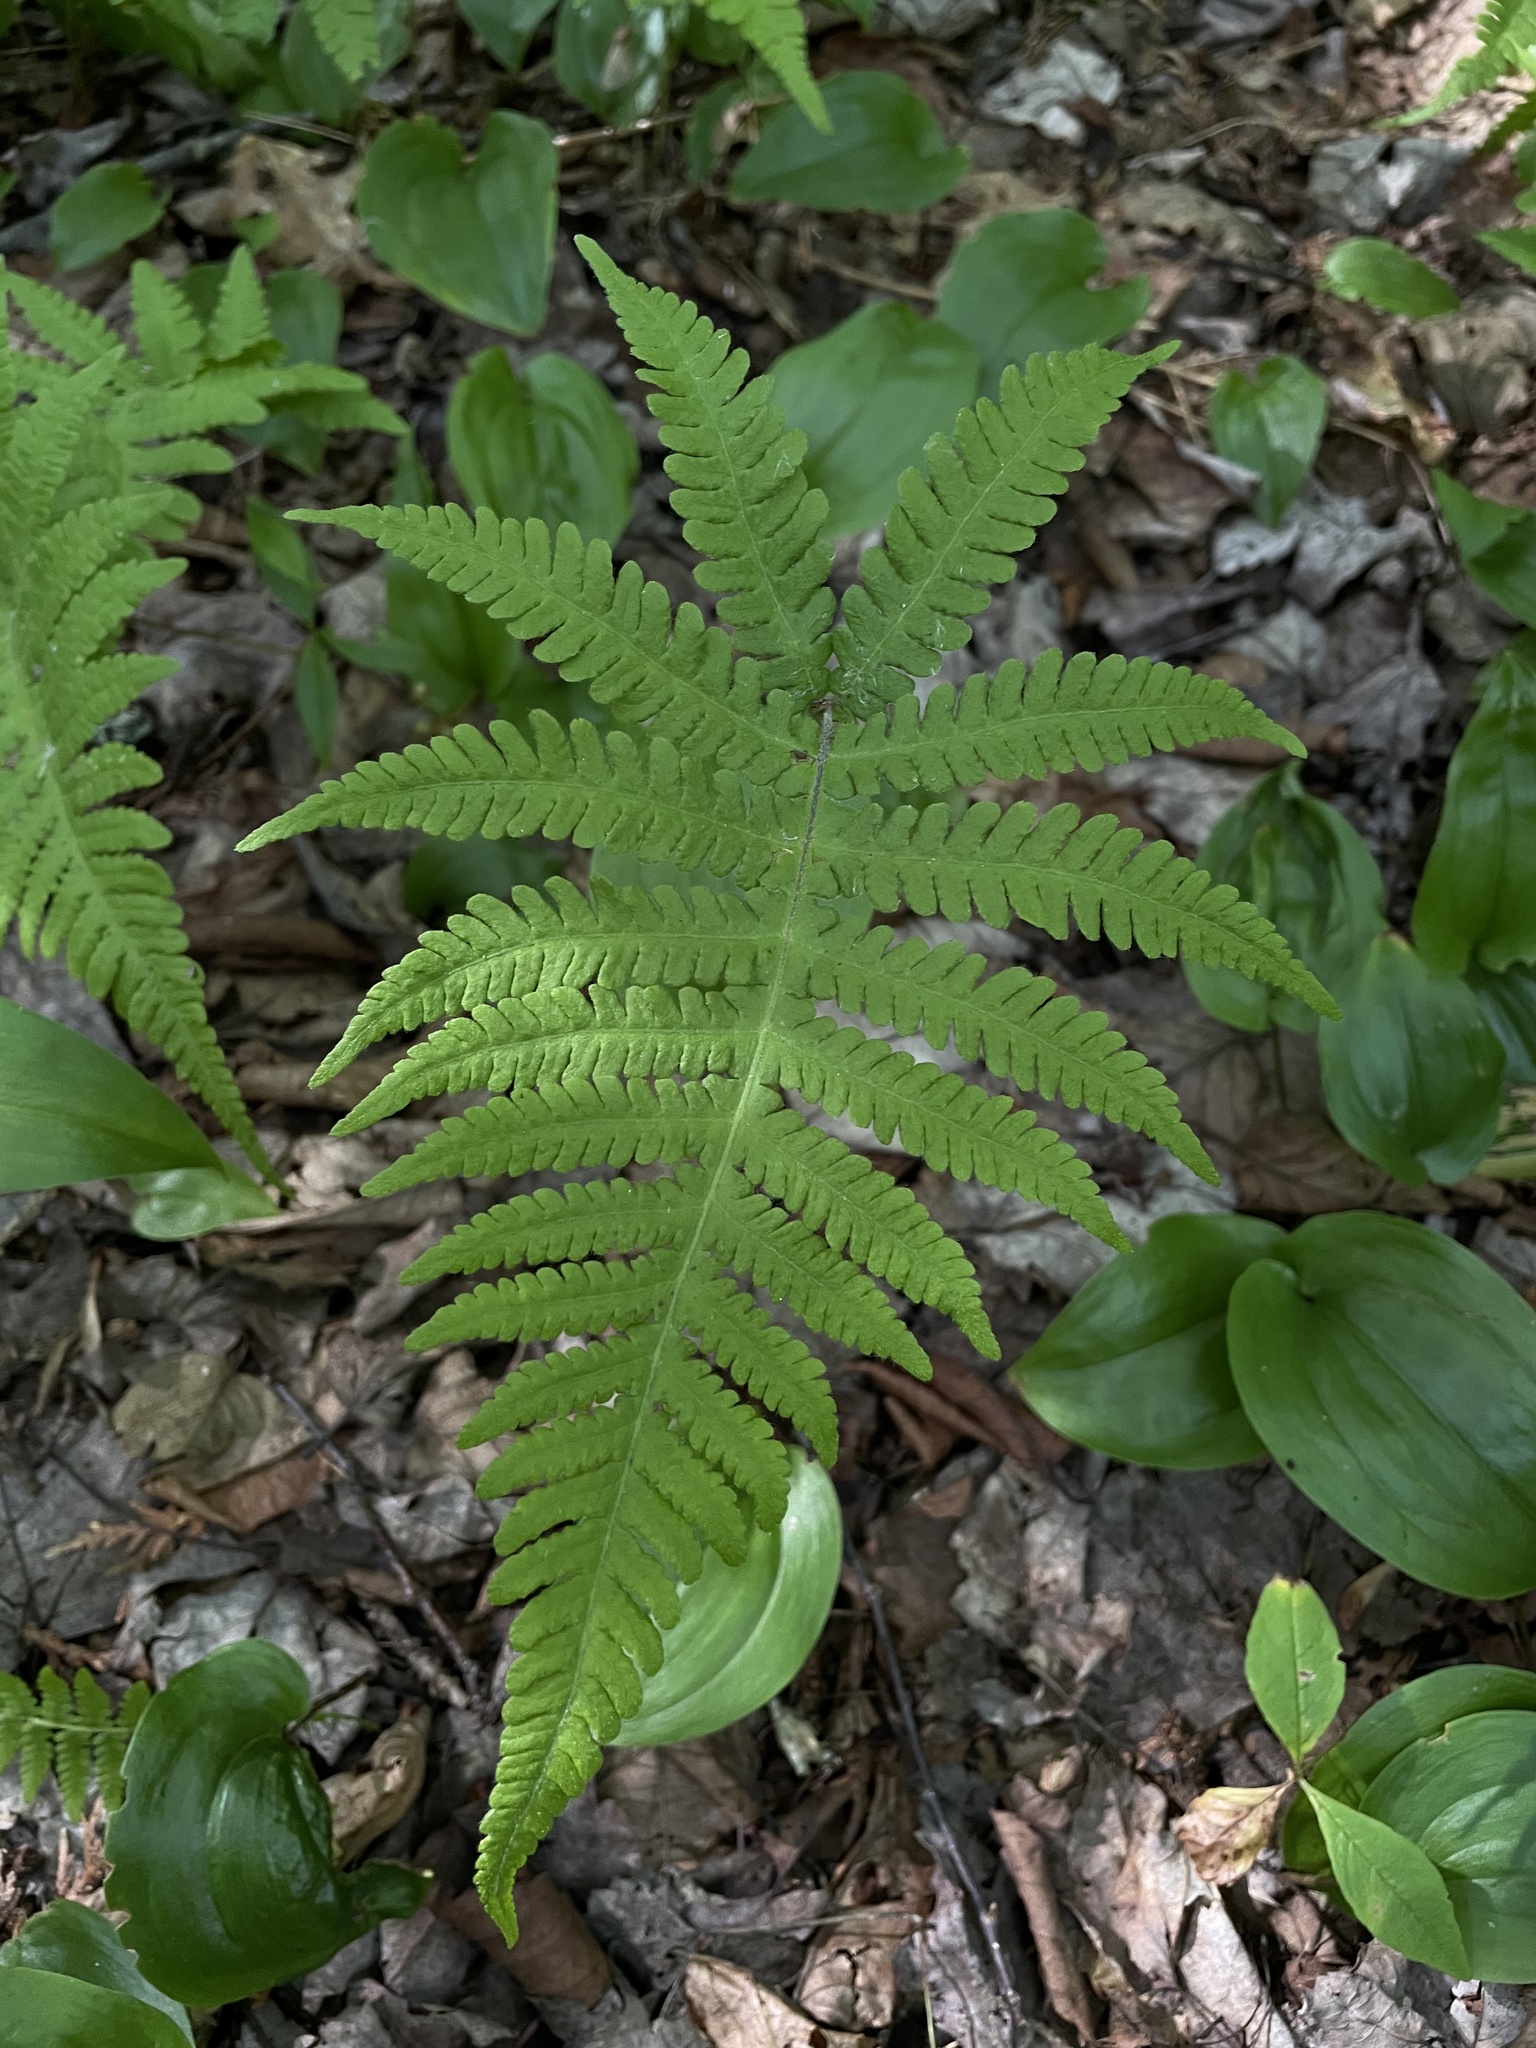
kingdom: Plantae
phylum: Tracheophyta
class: Polypodiopsida
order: Polypodiales
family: Thelypteridaceae
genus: Phegopteris
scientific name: Phegopteris connectilis
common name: Beech fern
